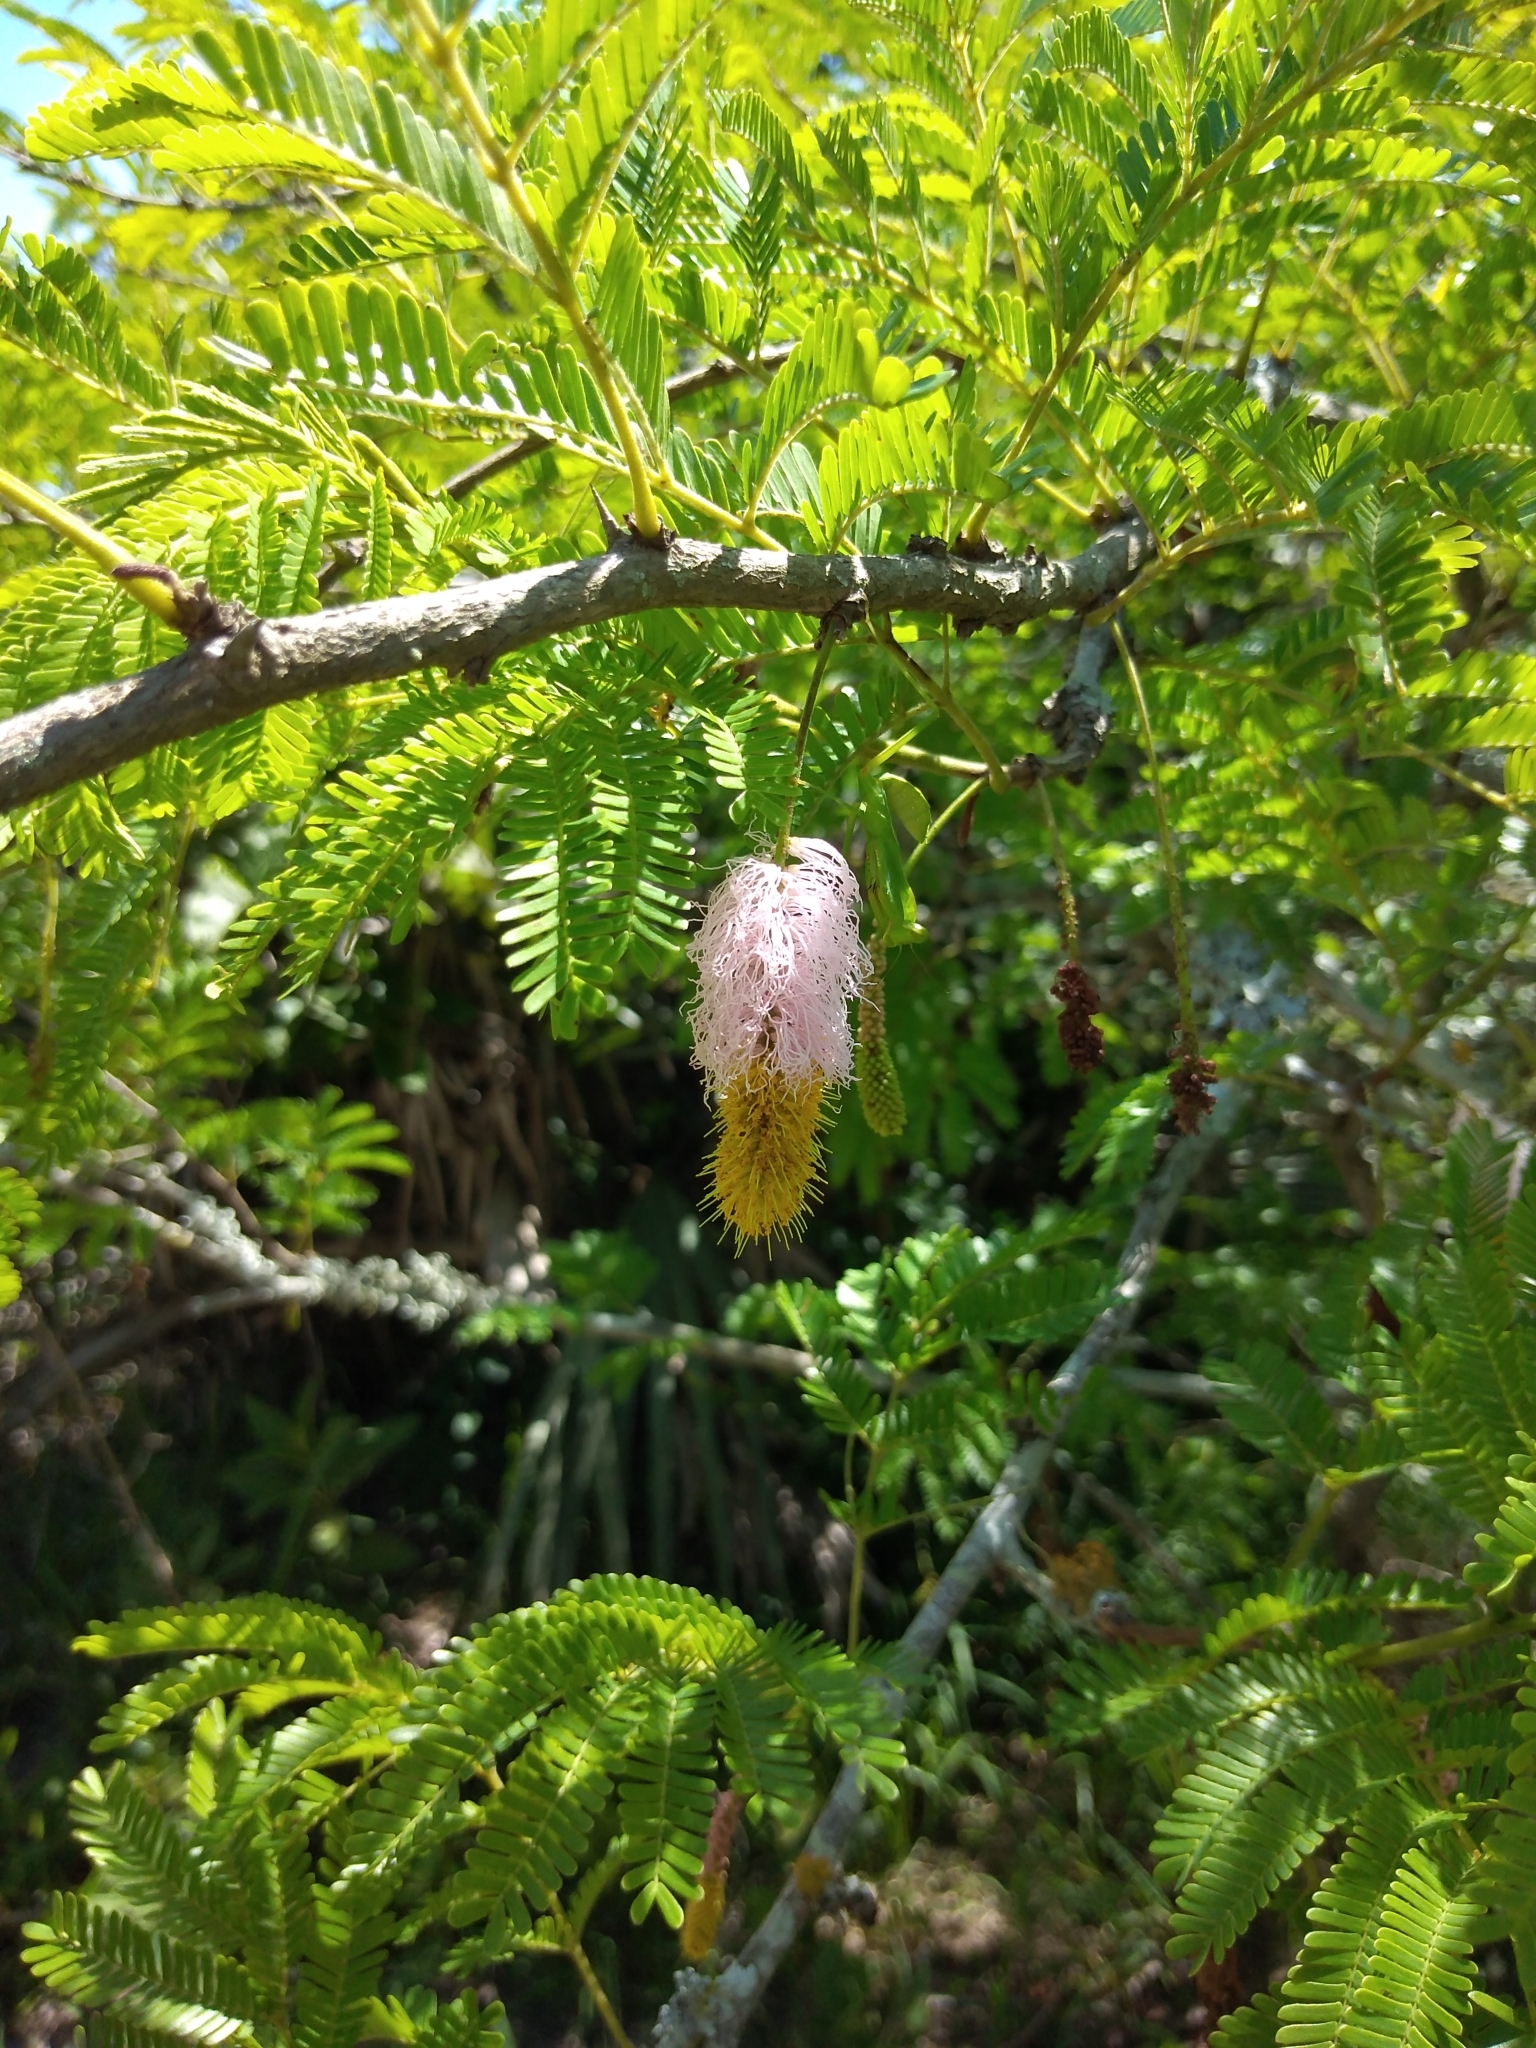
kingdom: Plantae
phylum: Tracheophyta
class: Magnoliopsida
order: Fabales
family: Fabaceae
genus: Dichrostachys
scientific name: Dichrostachys cinerea
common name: Sicklebush
